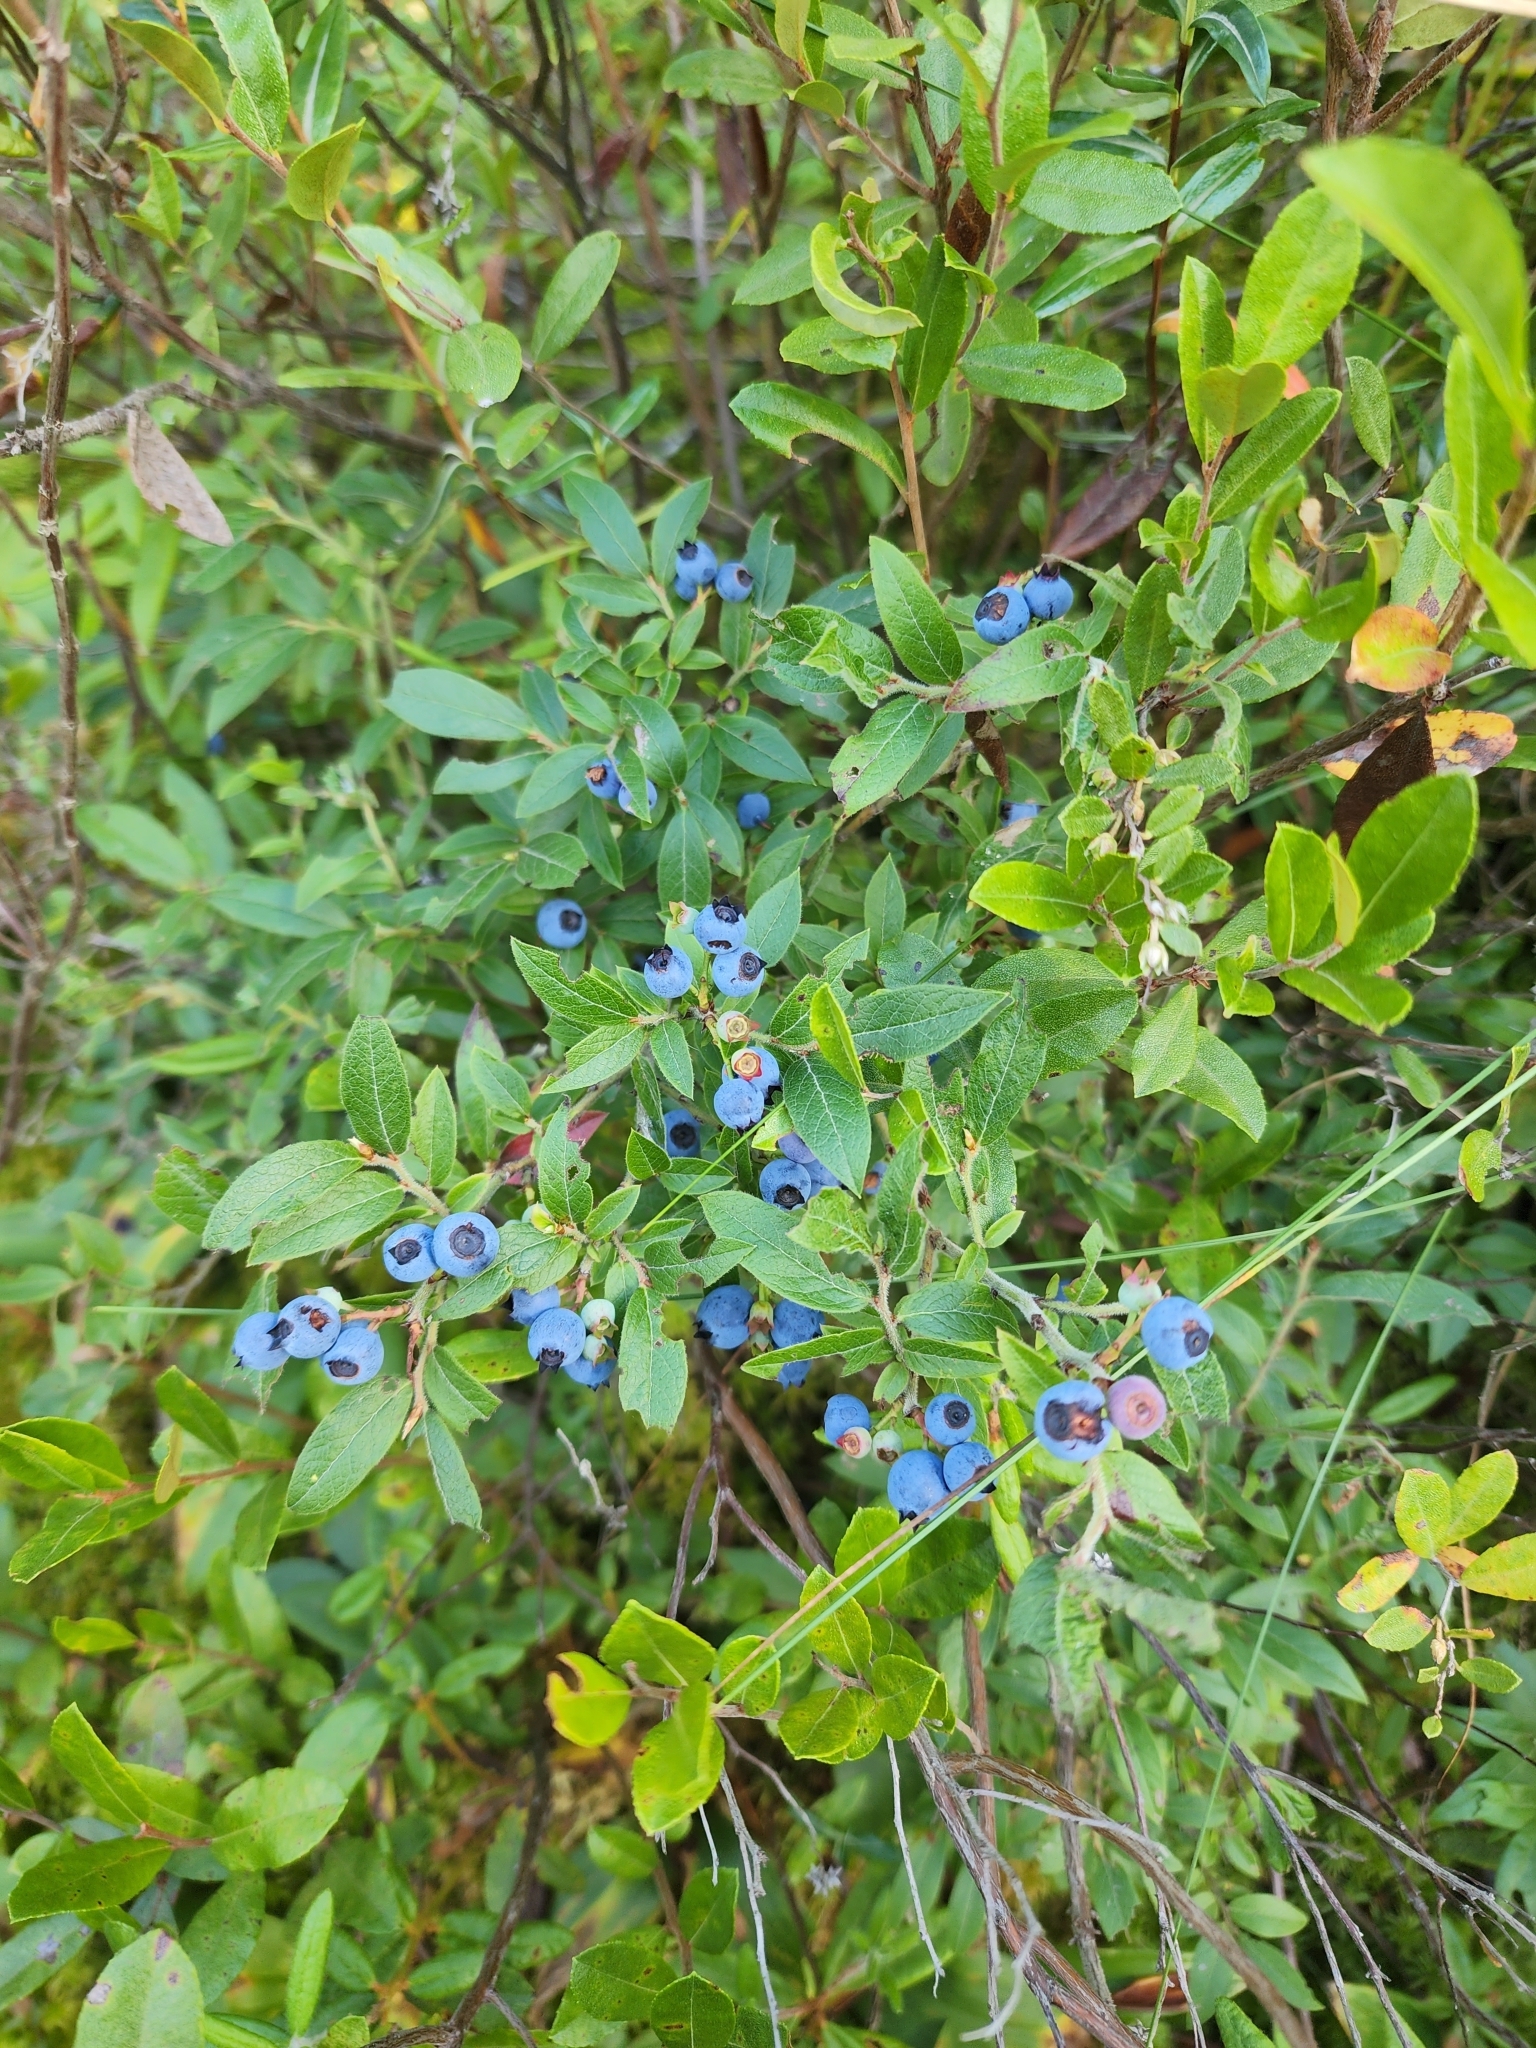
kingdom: Plantae
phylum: Tracheophyta
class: Magnoliopsida
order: Ericales
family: Ericaceae
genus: Vaccinium
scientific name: Vaccinium myrtilloides
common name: Canada blueberry
